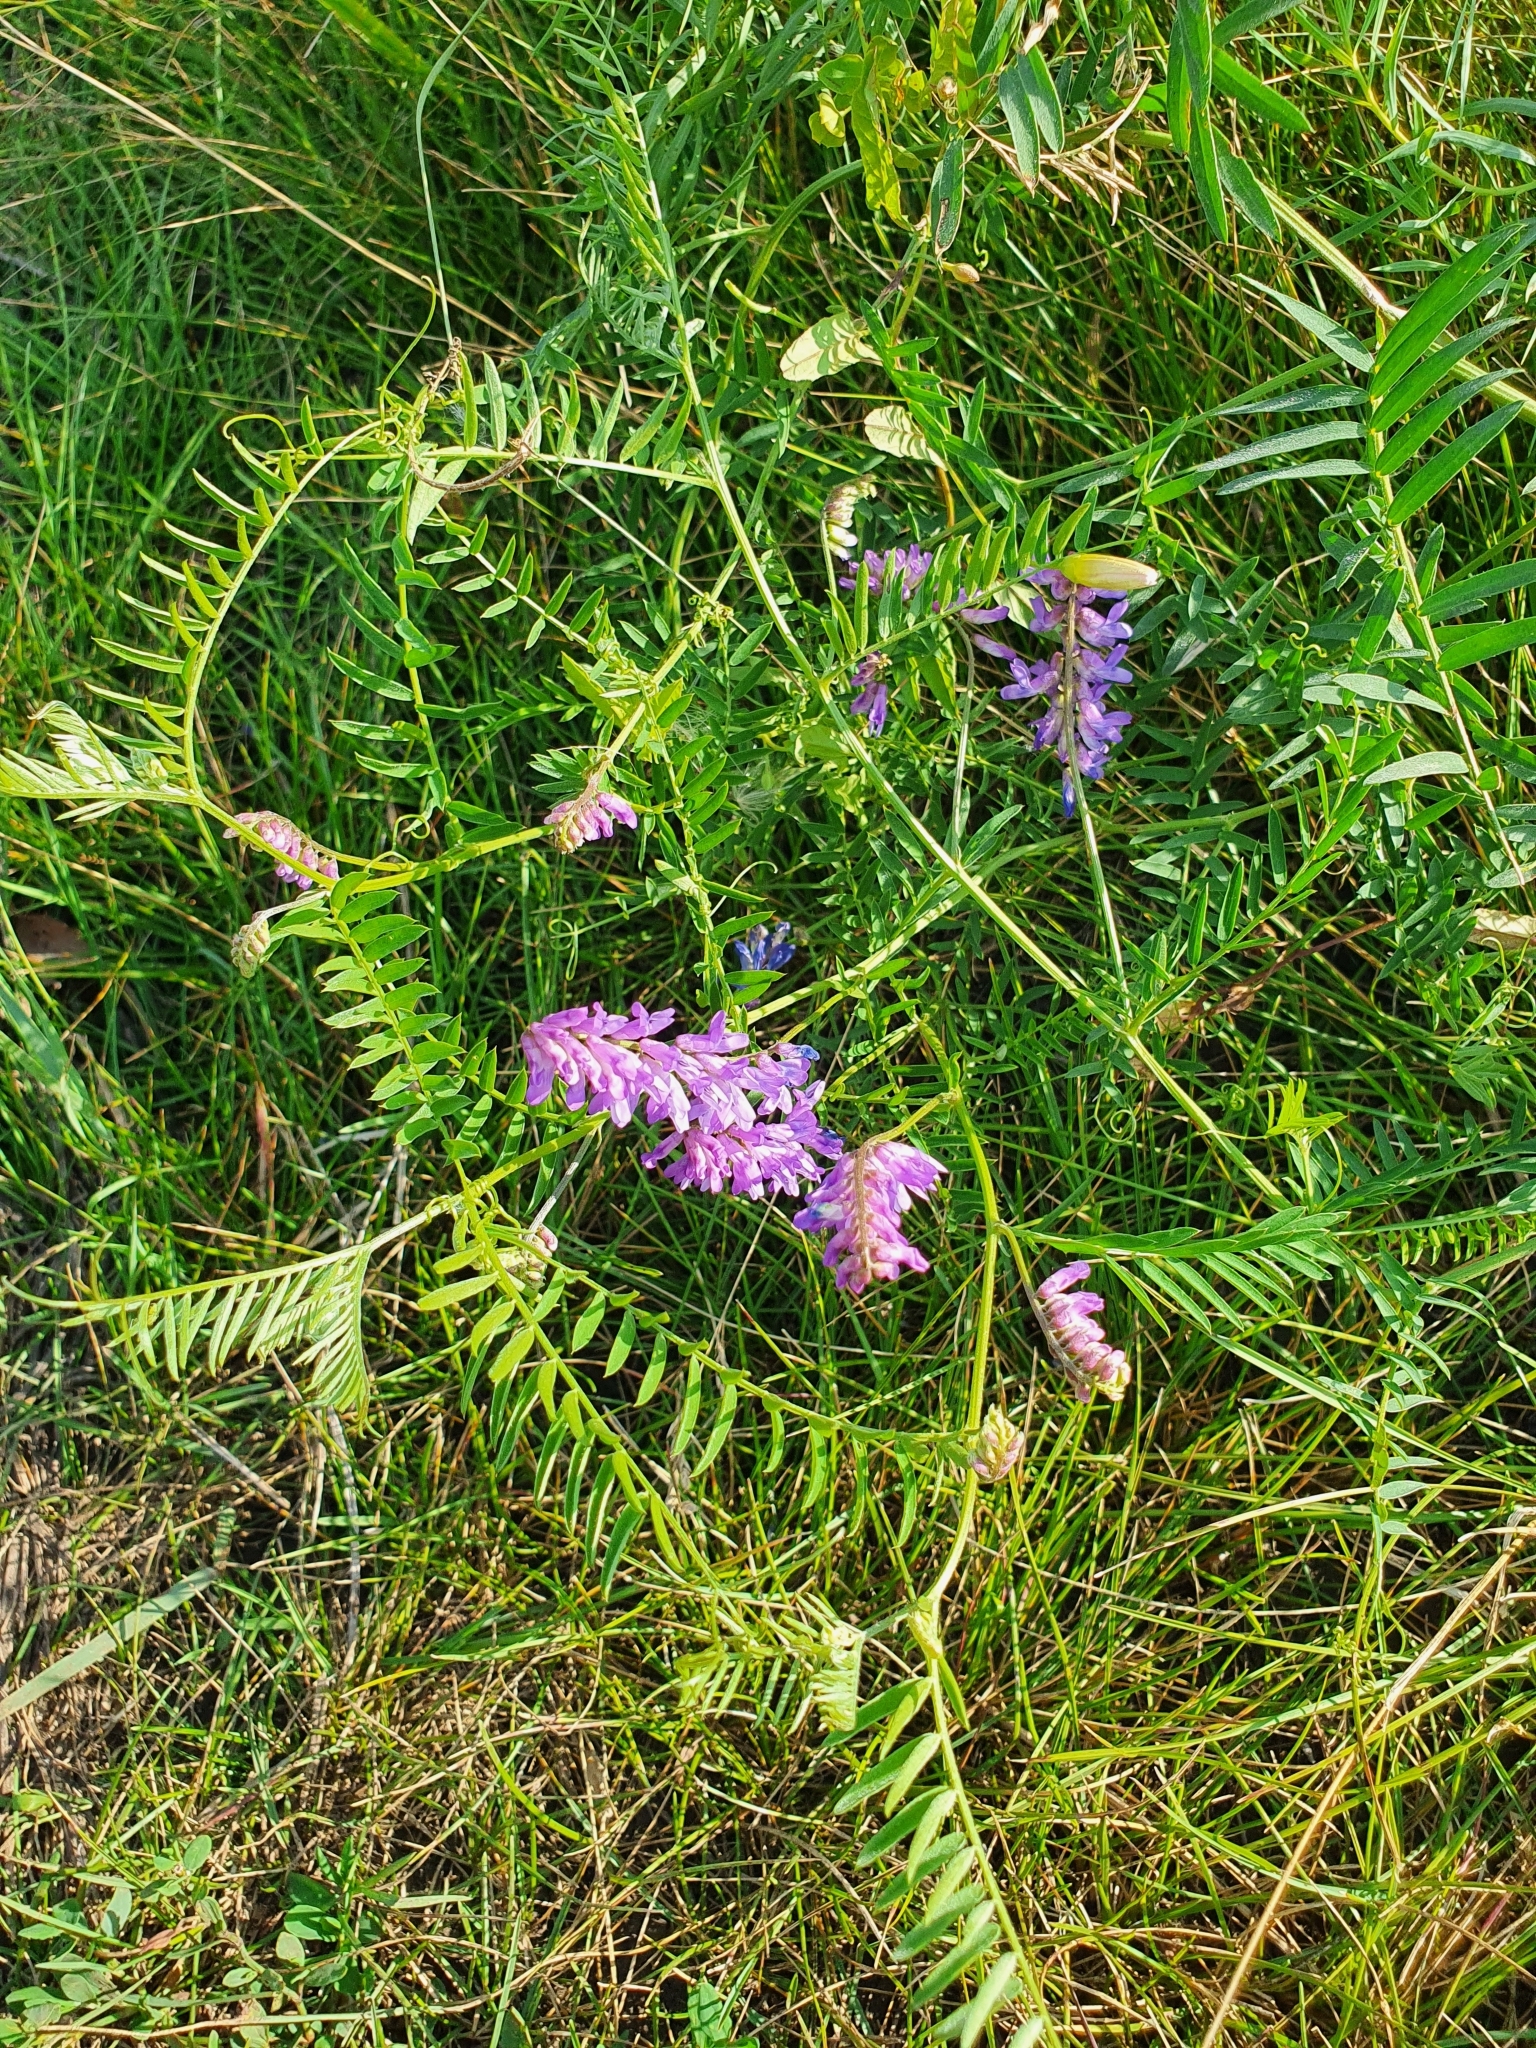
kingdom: Plantae
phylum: Tracheophyta
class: Magnoliopsida
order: Fabales
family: Fabaceae
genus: Vicia
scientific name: Vicia cracca
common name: Bird vetch
